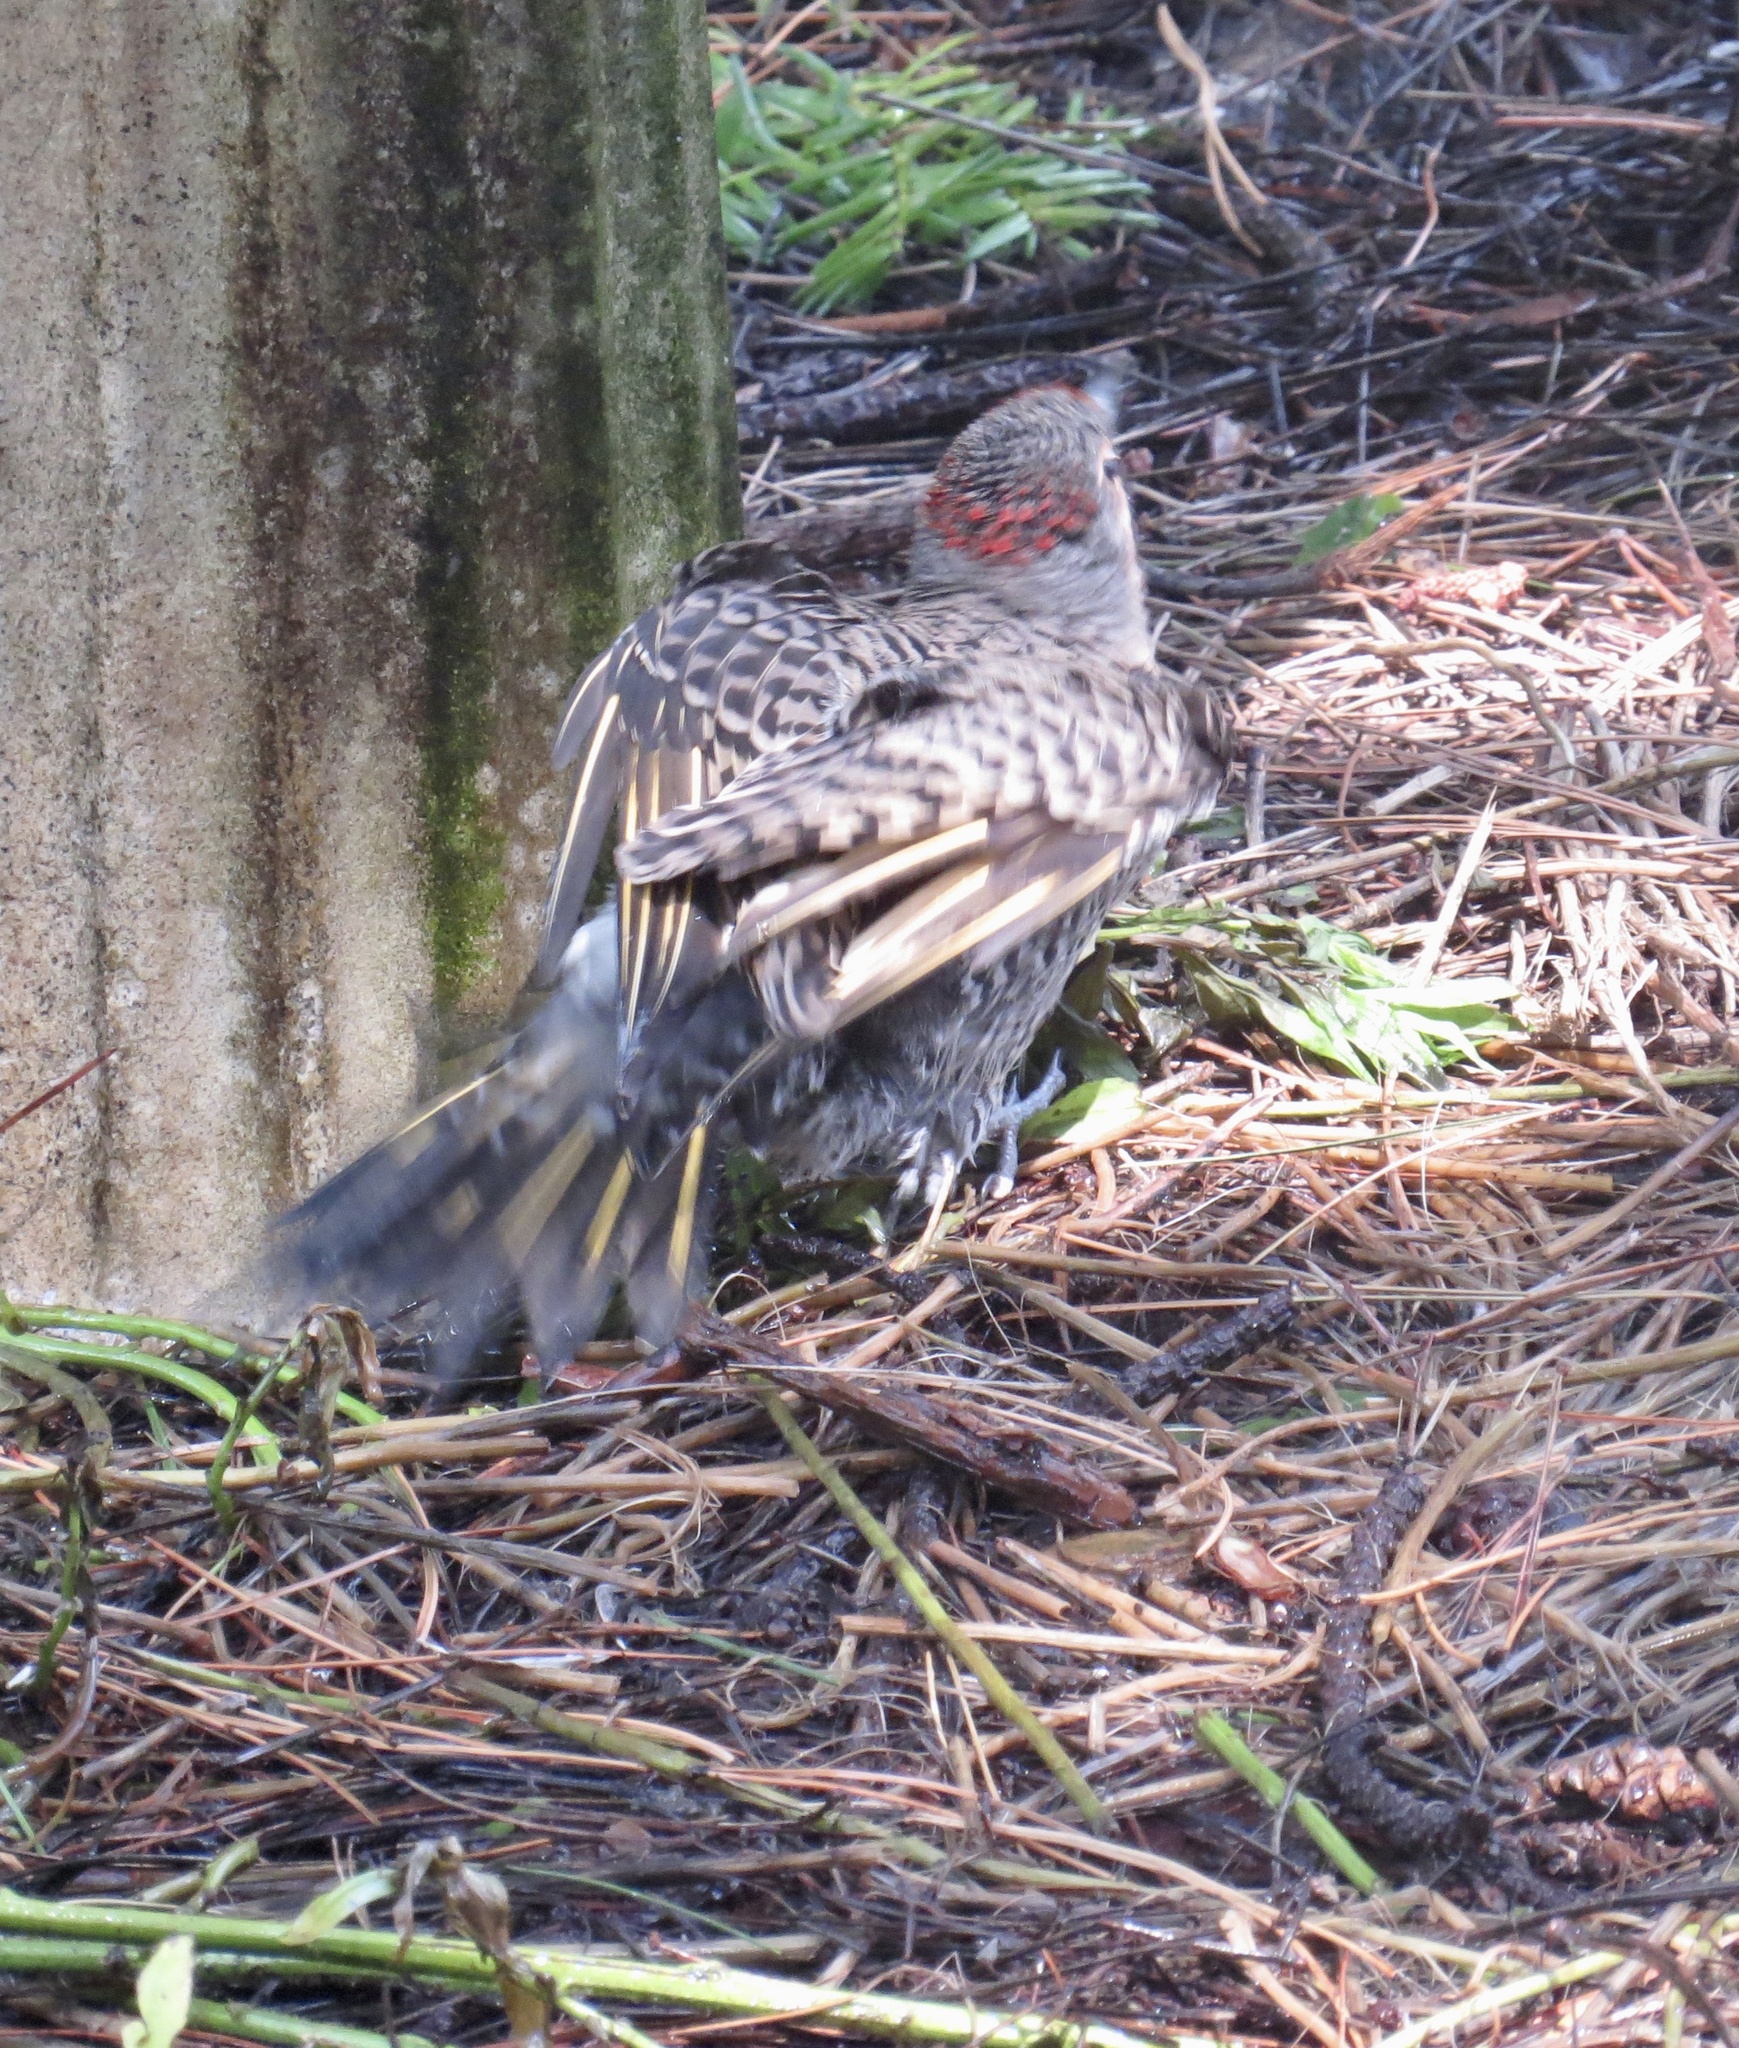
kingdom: Animalia
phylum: Chordata
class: Aves
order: Piciformes
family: Picidae
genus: Colaptes
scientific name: Colaptes auratus
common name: Northern flicker
